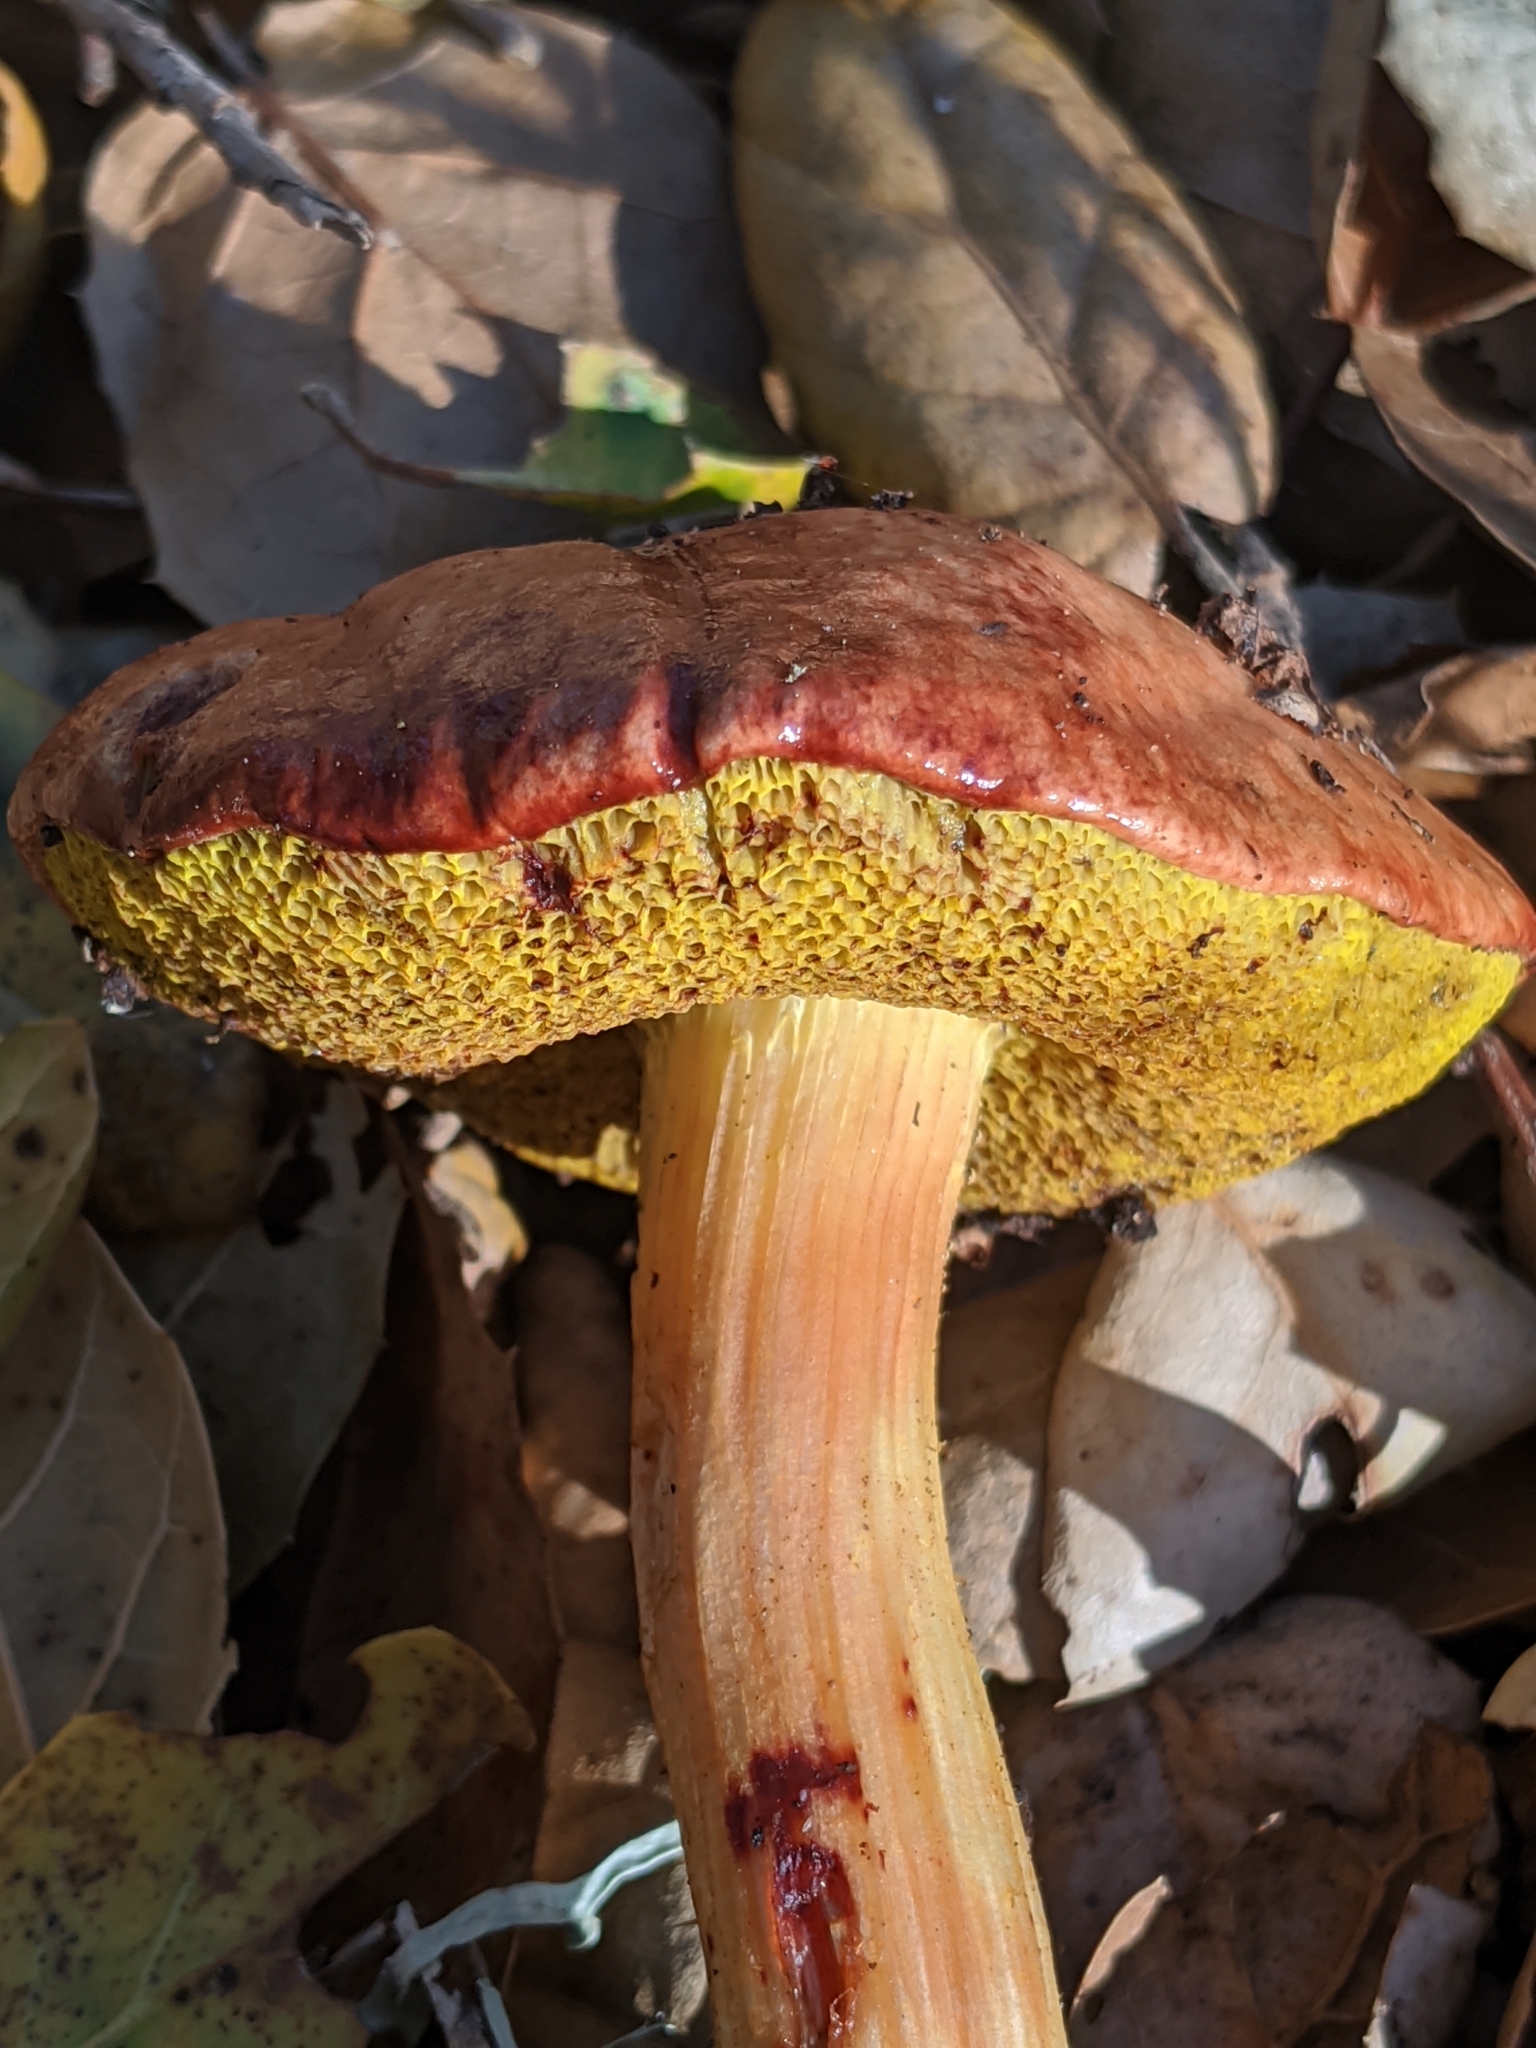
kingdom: Fungi
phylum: Basidiomycota
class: Agaricomycetes
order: Boletales
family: Boletaceae
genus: Aureoboletus
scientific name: Aureoboletus flaviporus
